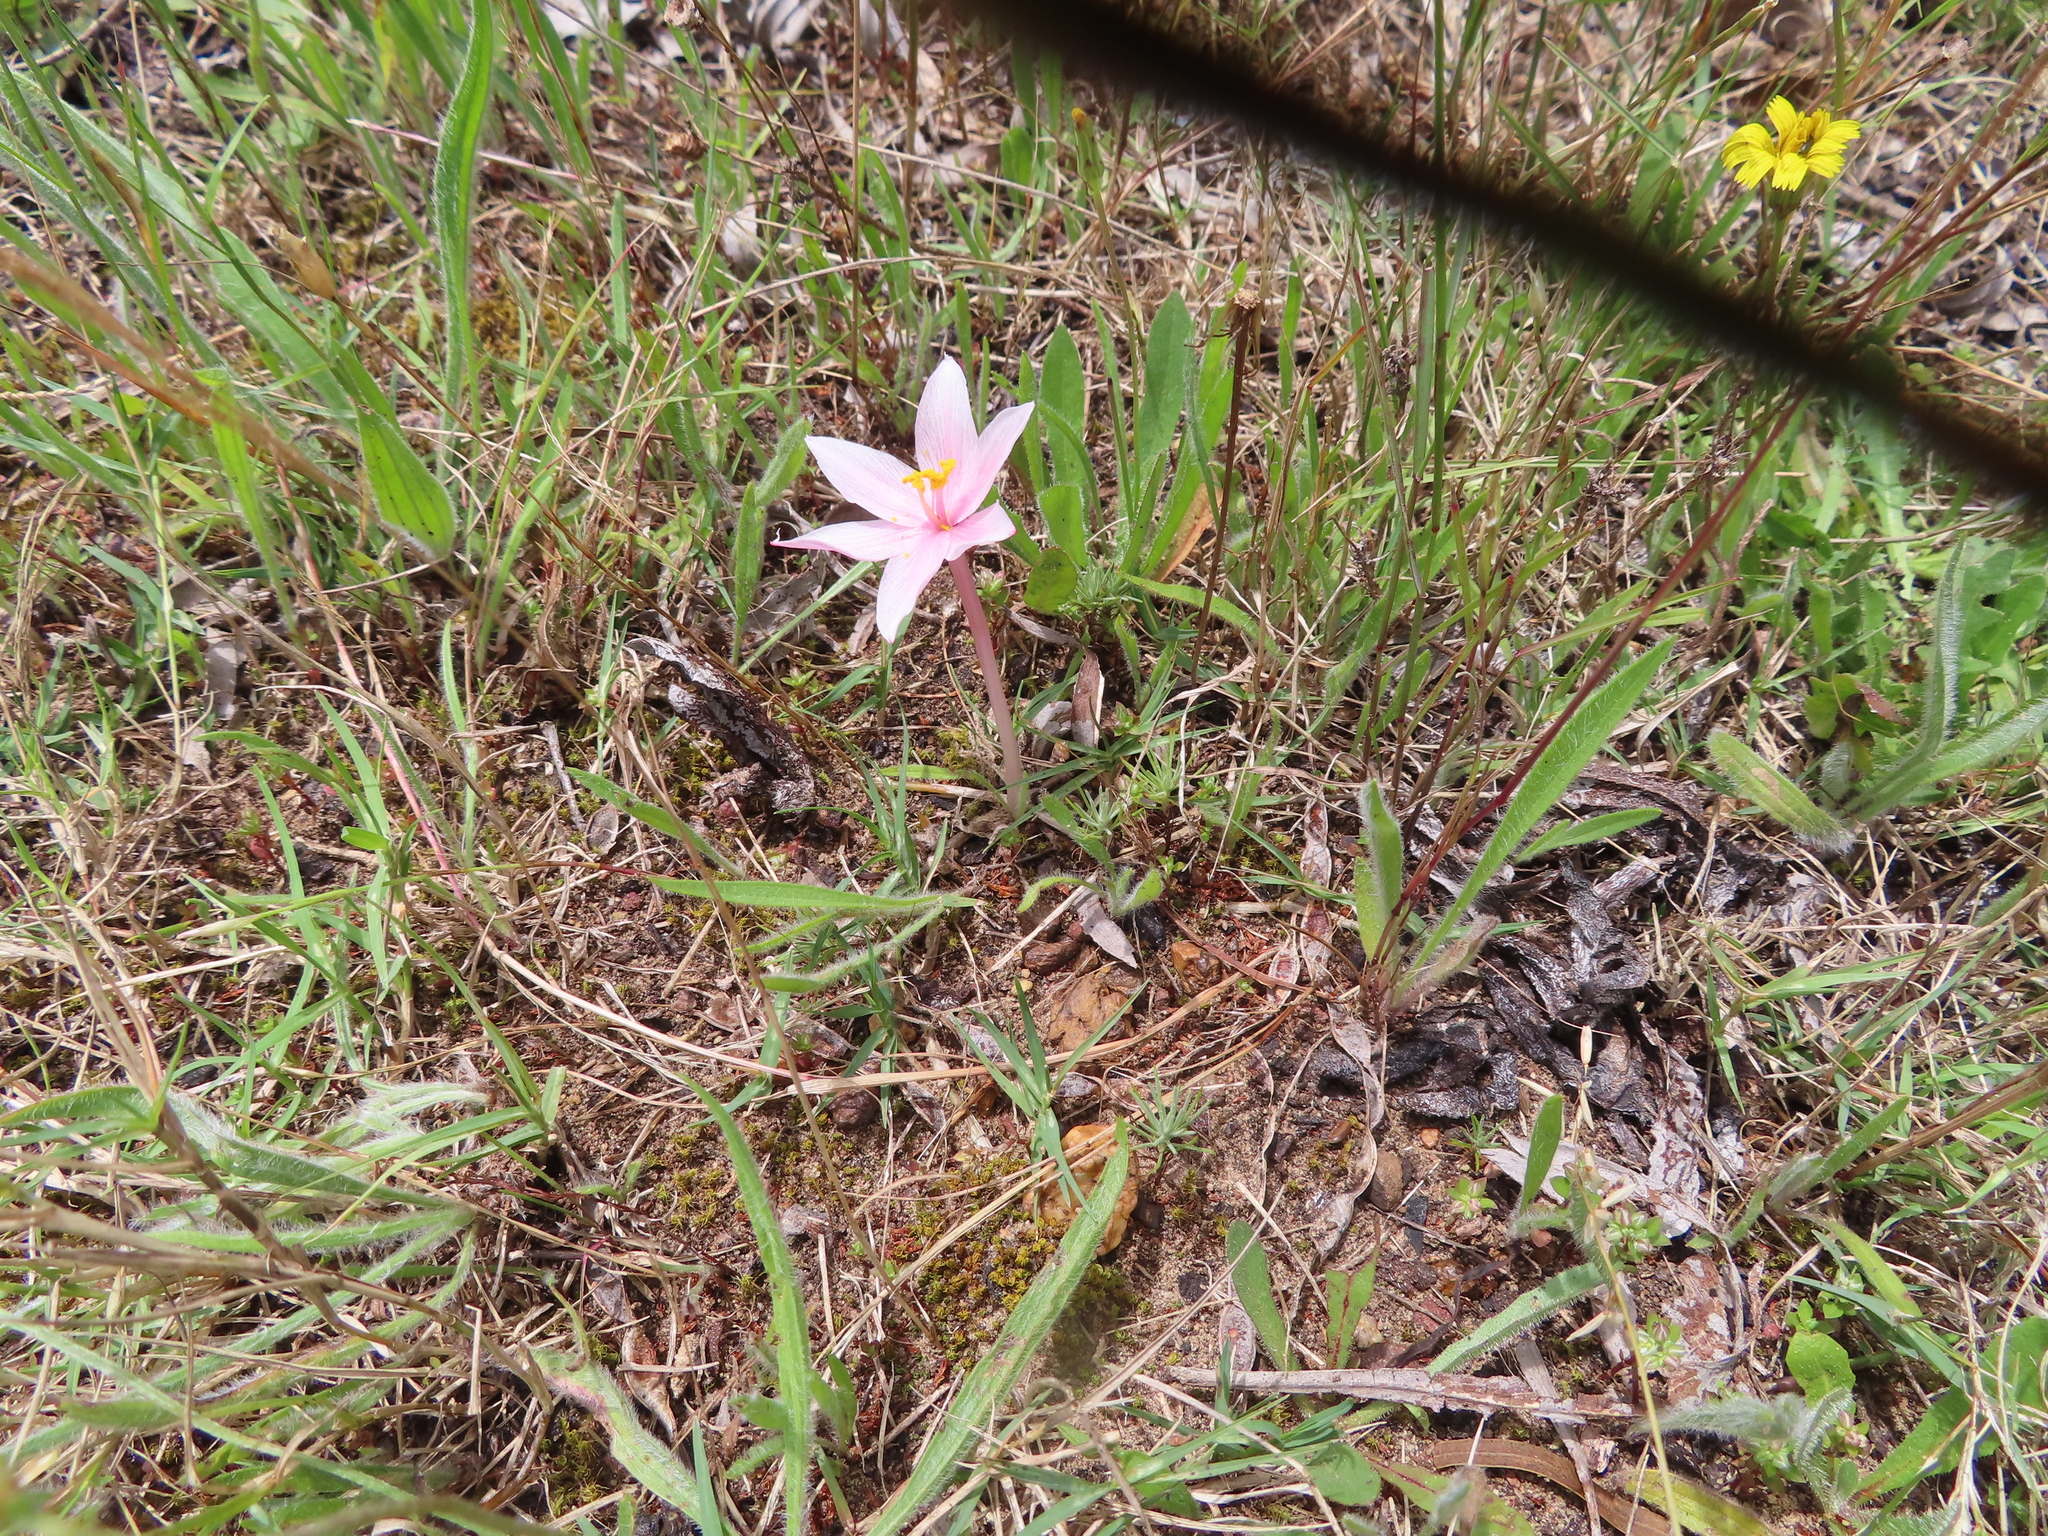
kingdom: Plantae
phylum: Tracheophyta
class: Liliopsida
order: Asparagales
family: Amaryllidaceae
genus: Gethyllis
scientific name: Gethyllis villosa
